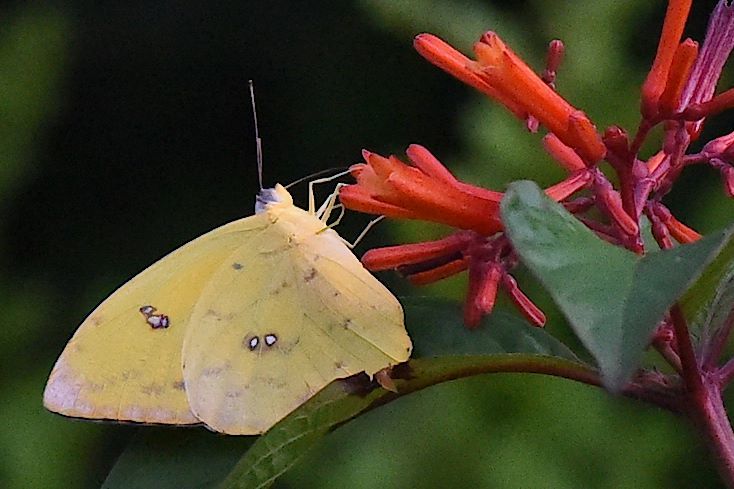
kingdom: Animalia
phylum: Arthropoda
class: Insecta
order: Lepidoptera
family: Pieridae
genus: Phoebis
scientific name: Phoebis philea
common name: Orange-barred giant sulphur
